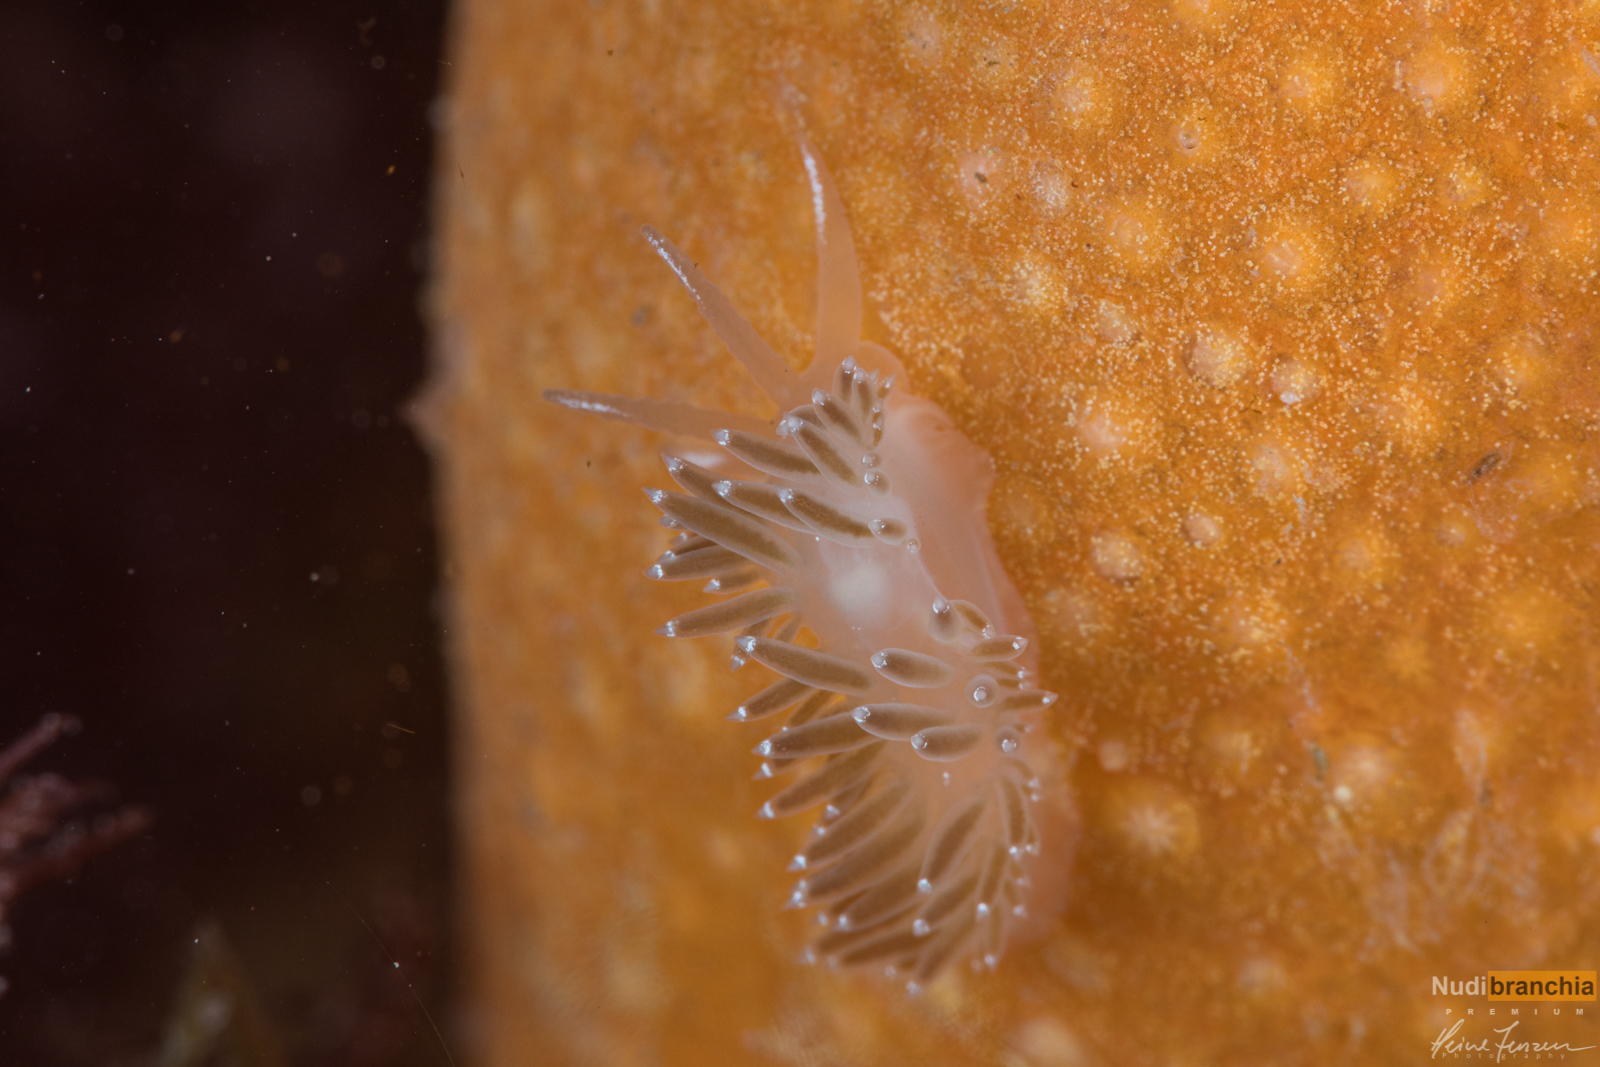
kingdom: Animalia
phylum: Mollusca
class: Gastropoda
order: Nudibranchia
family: Coryphellidae
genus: Coryphella
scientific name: Coryphella verrucosa
